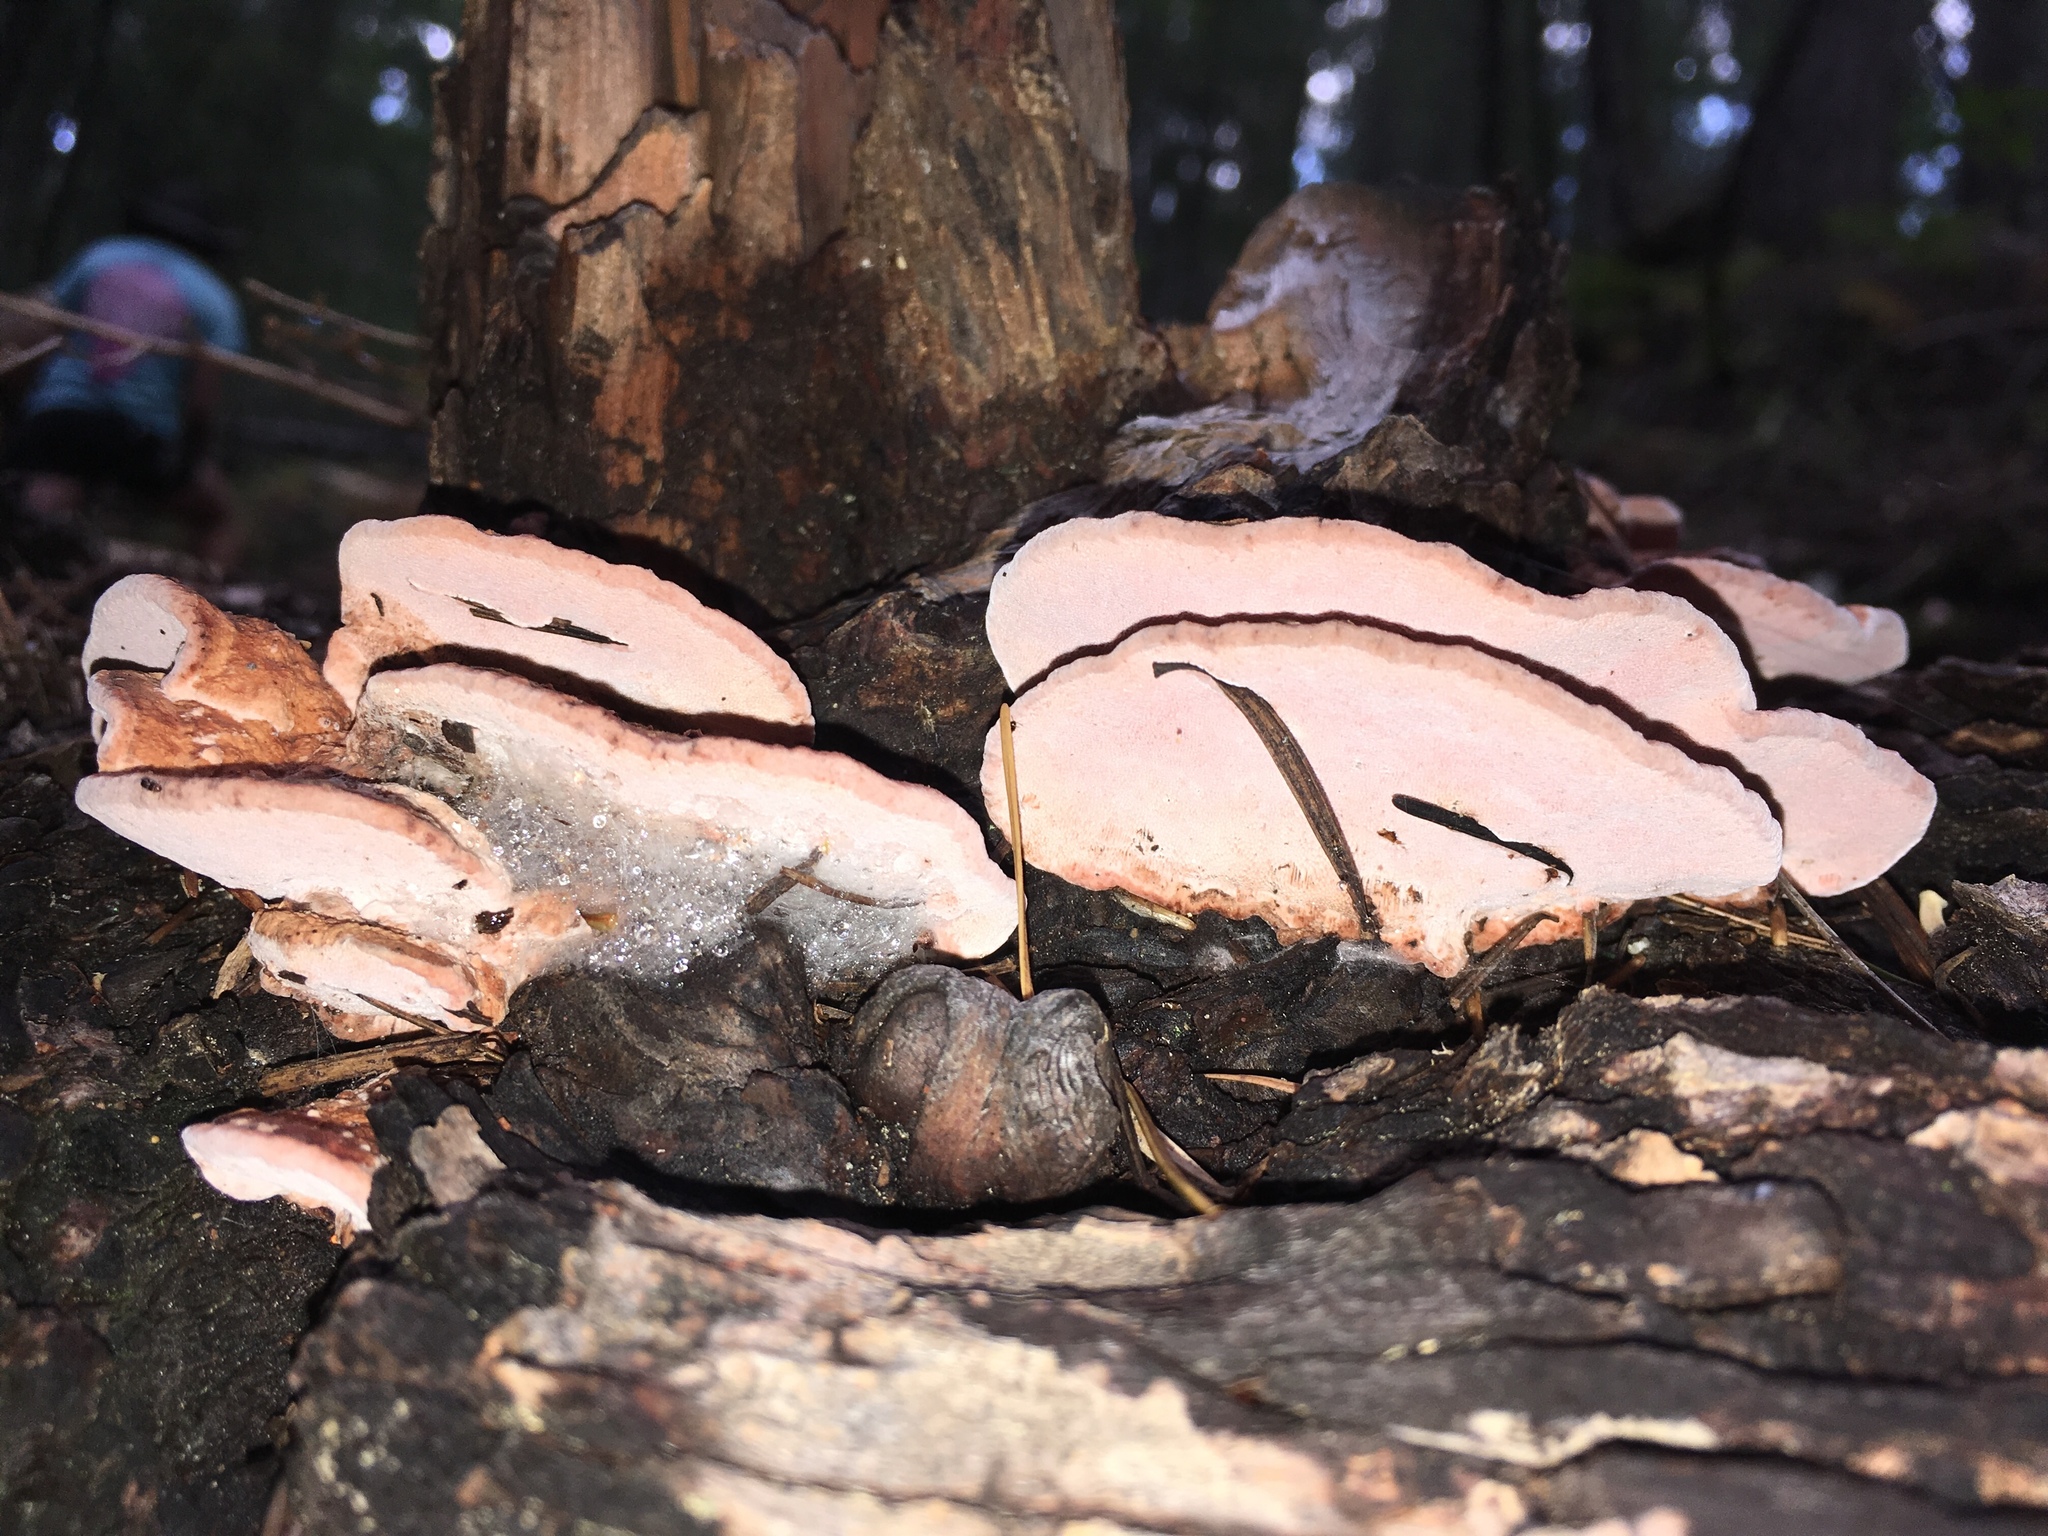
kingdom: Fungi
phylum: Basidiomycota
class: Agaricomycetes
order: Polyporales
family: Fomitopsidaceae
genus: Rhodofomes
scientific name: Rhodofomes cajanderi
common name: Rosy conk
